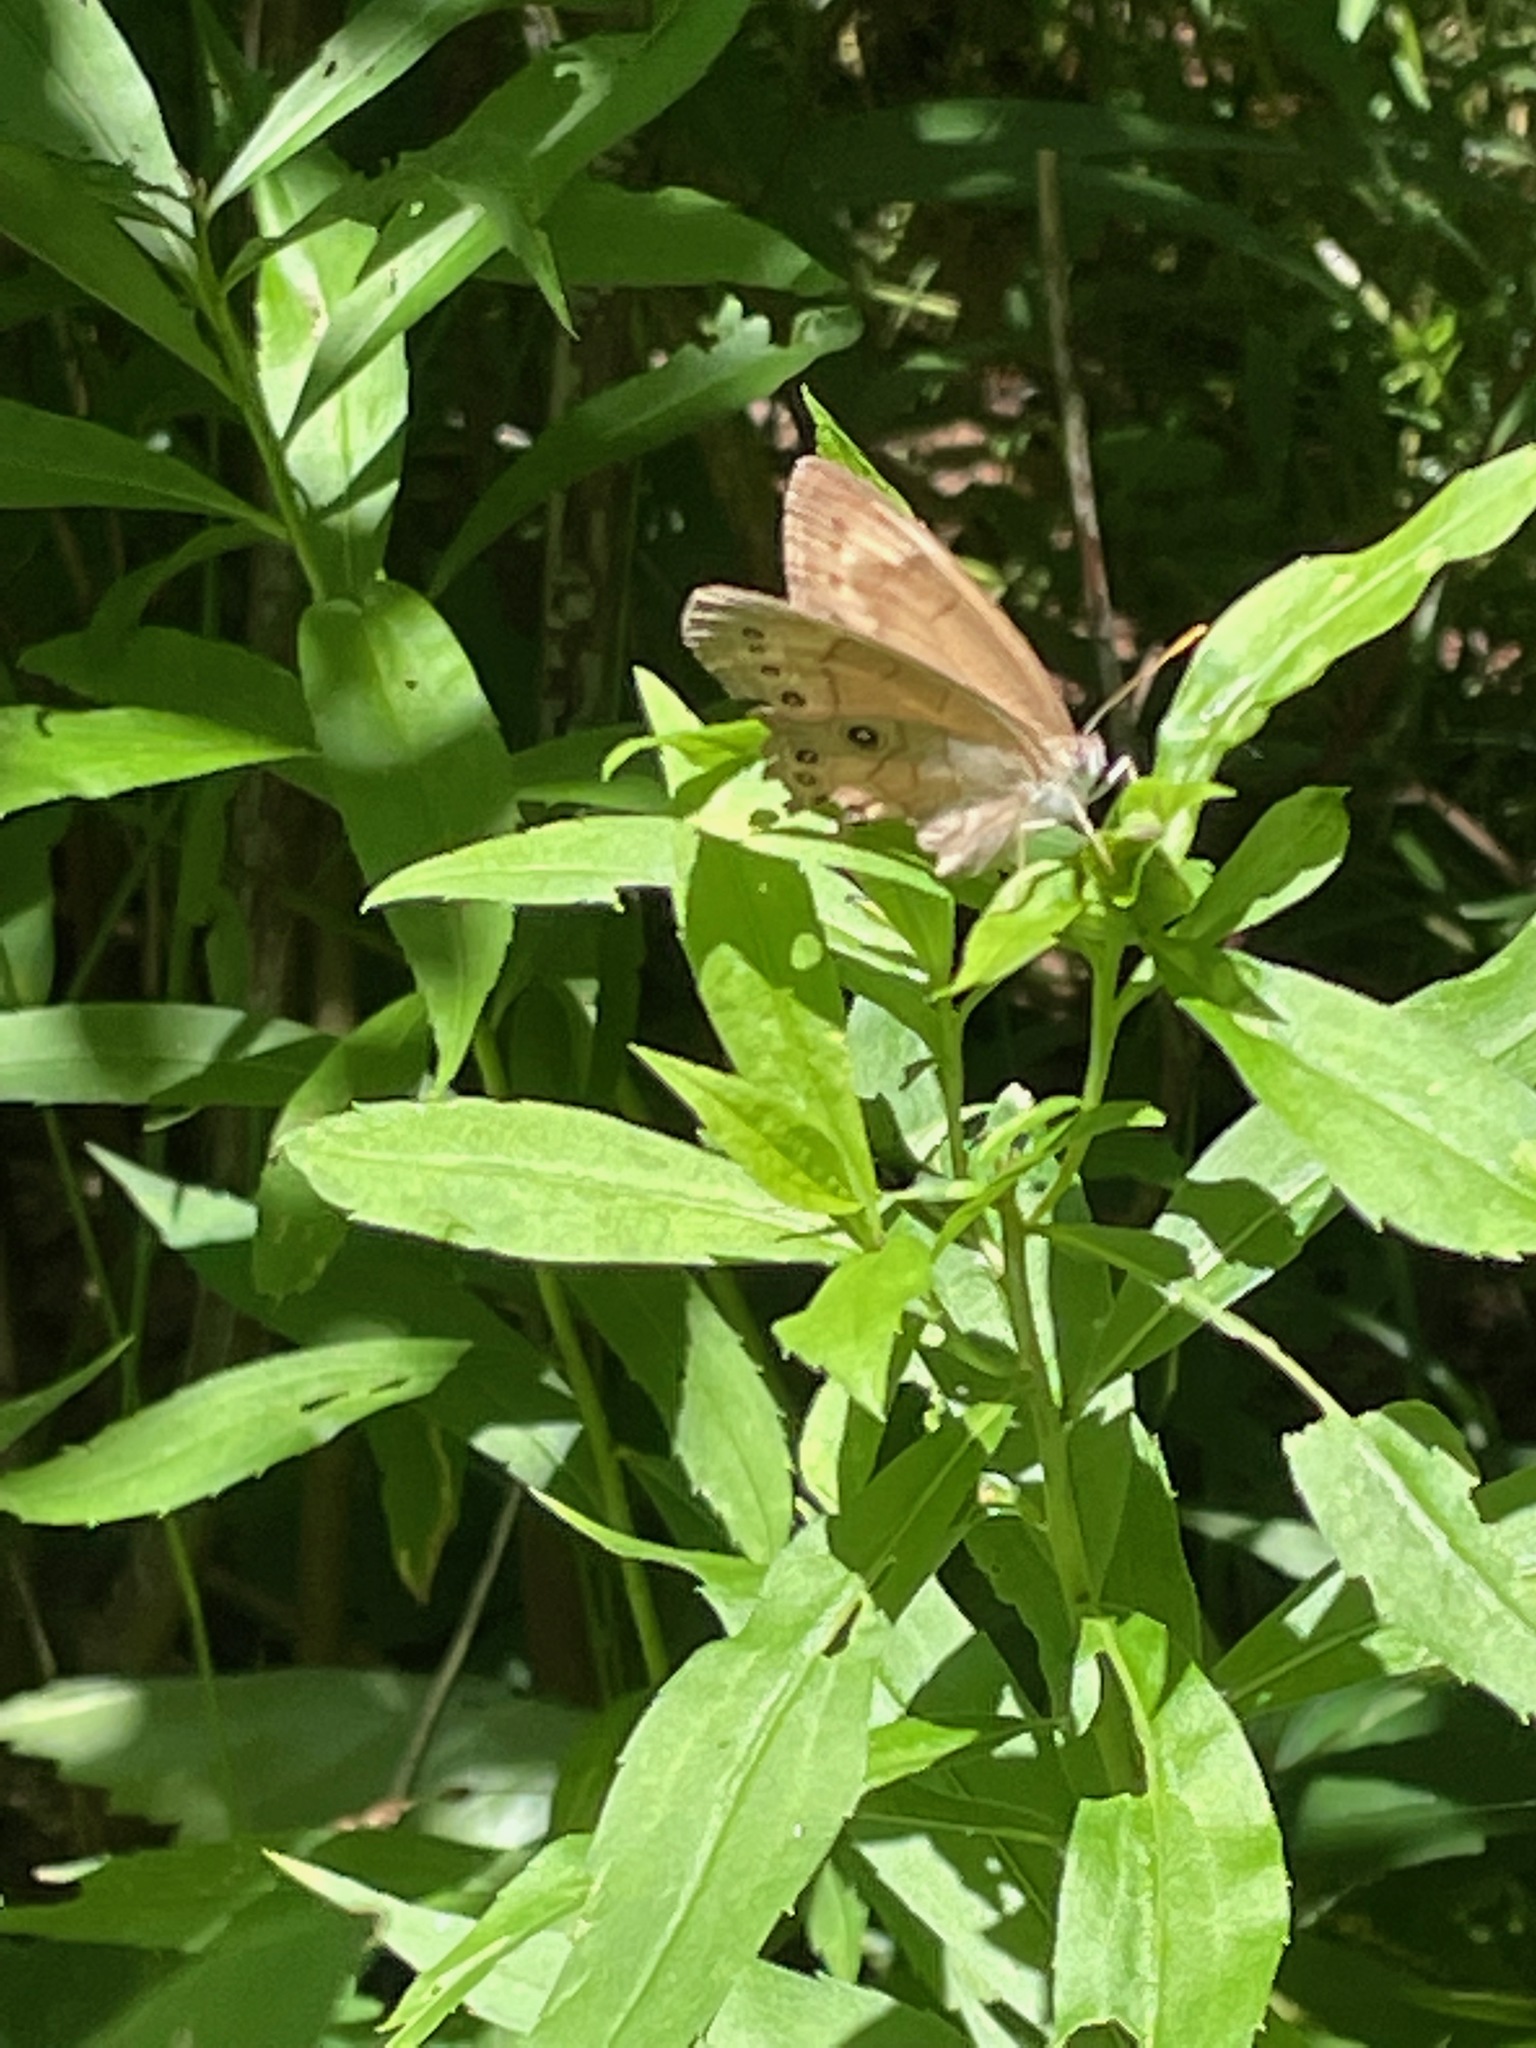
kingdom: Animalia
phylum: Arthropoda
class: Insecta
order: Lepidoptera
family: Nymphalidae
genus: Lethe
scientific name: Lethe eurydice
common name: Eyed brown
